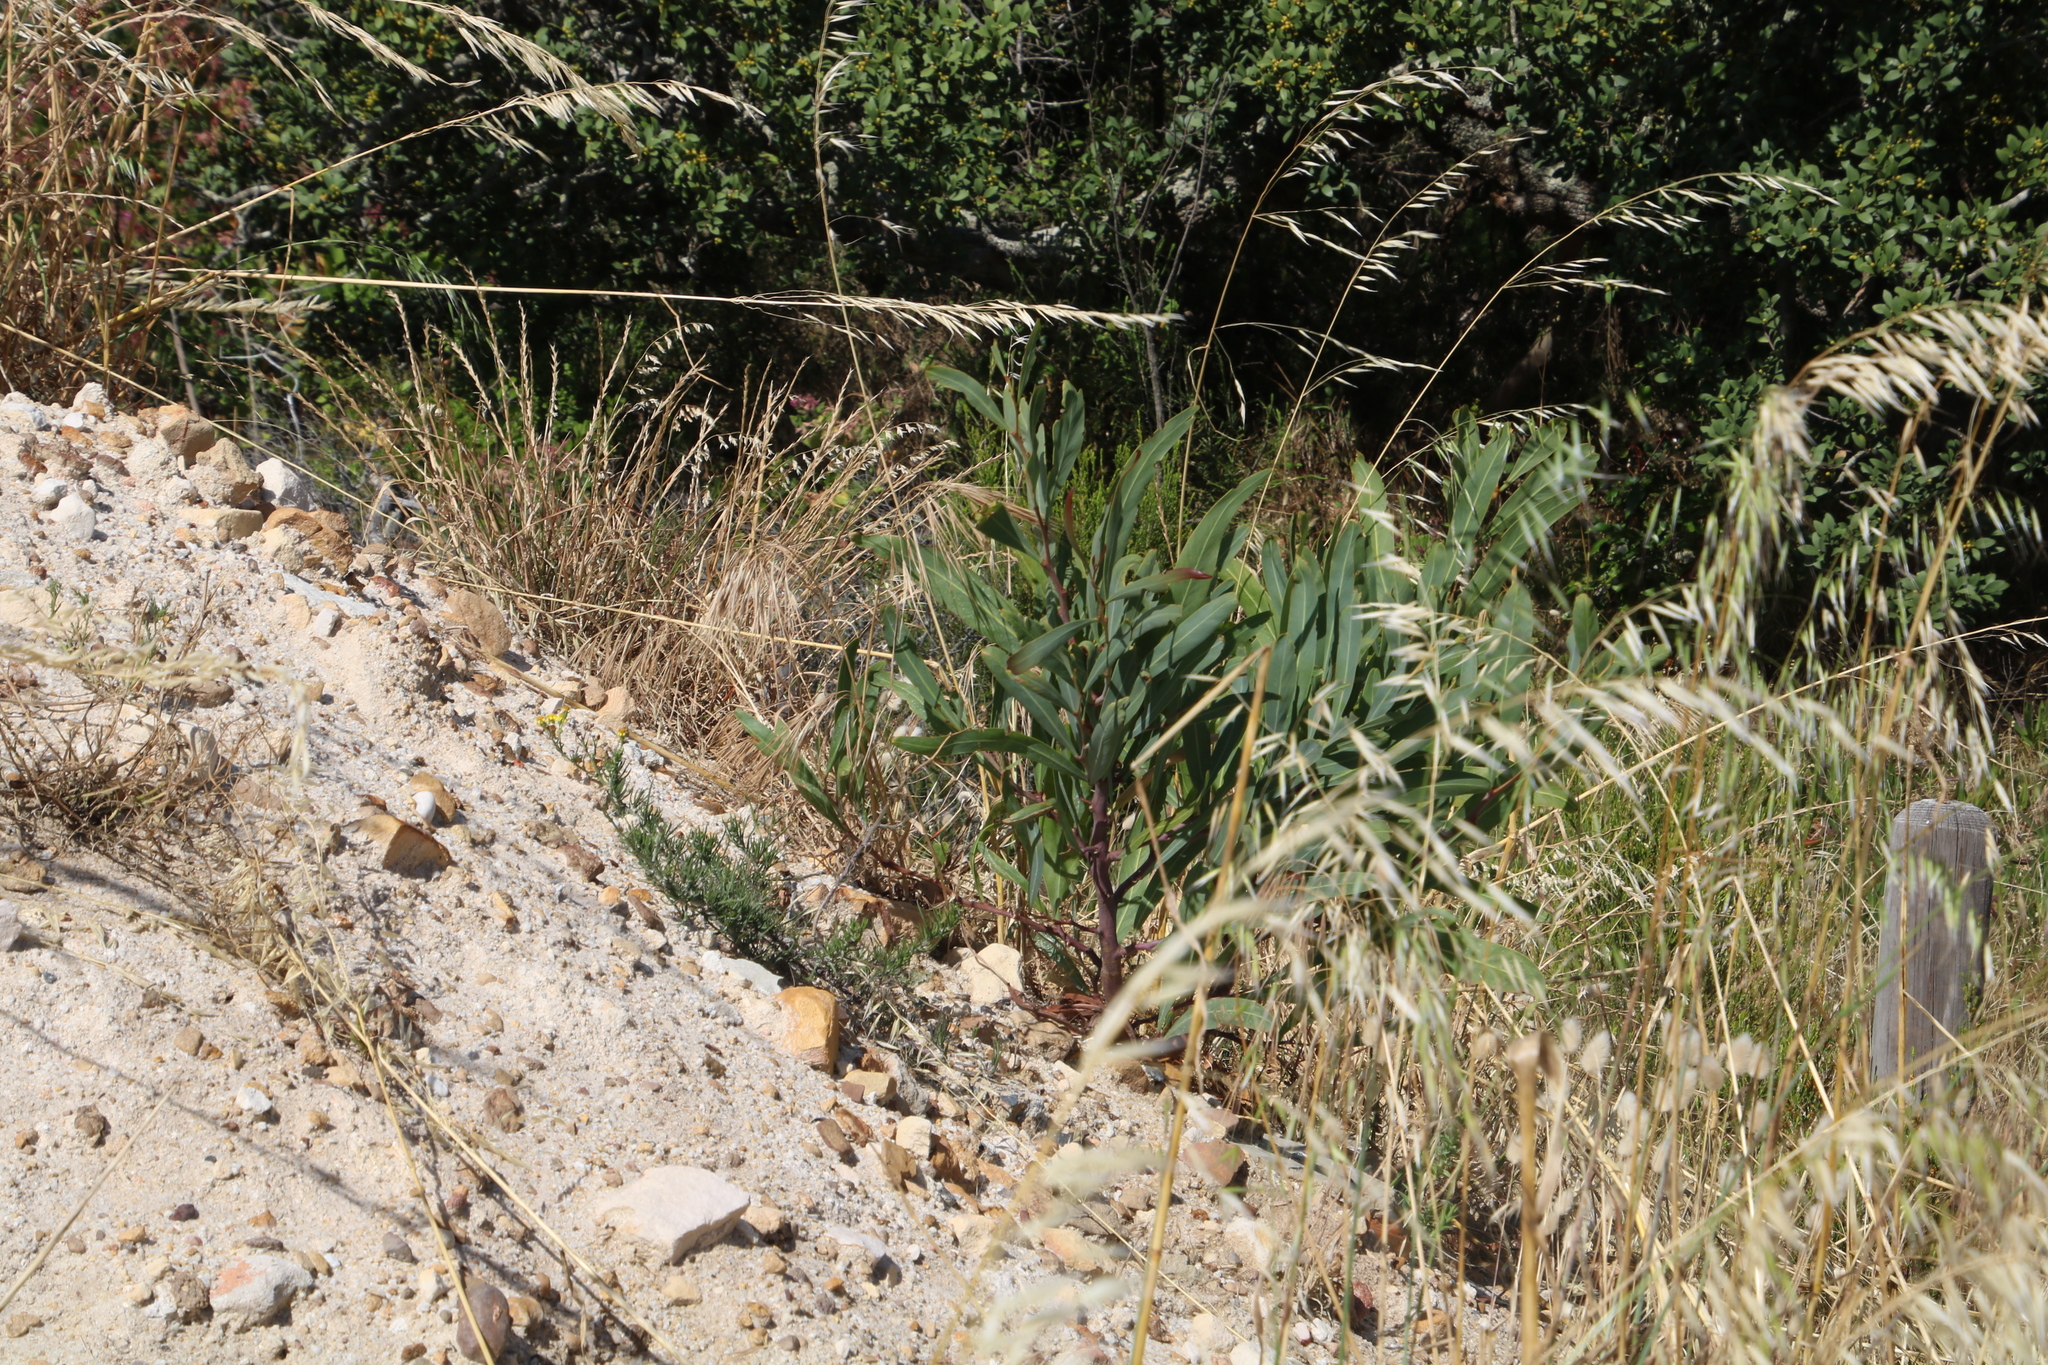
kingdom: Plantae
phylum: Tracheophyta
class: Magnoliopsida
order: Fabales
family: Fabaceae
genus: Acacia
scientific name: Acacia saligna
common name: Orange wattle
